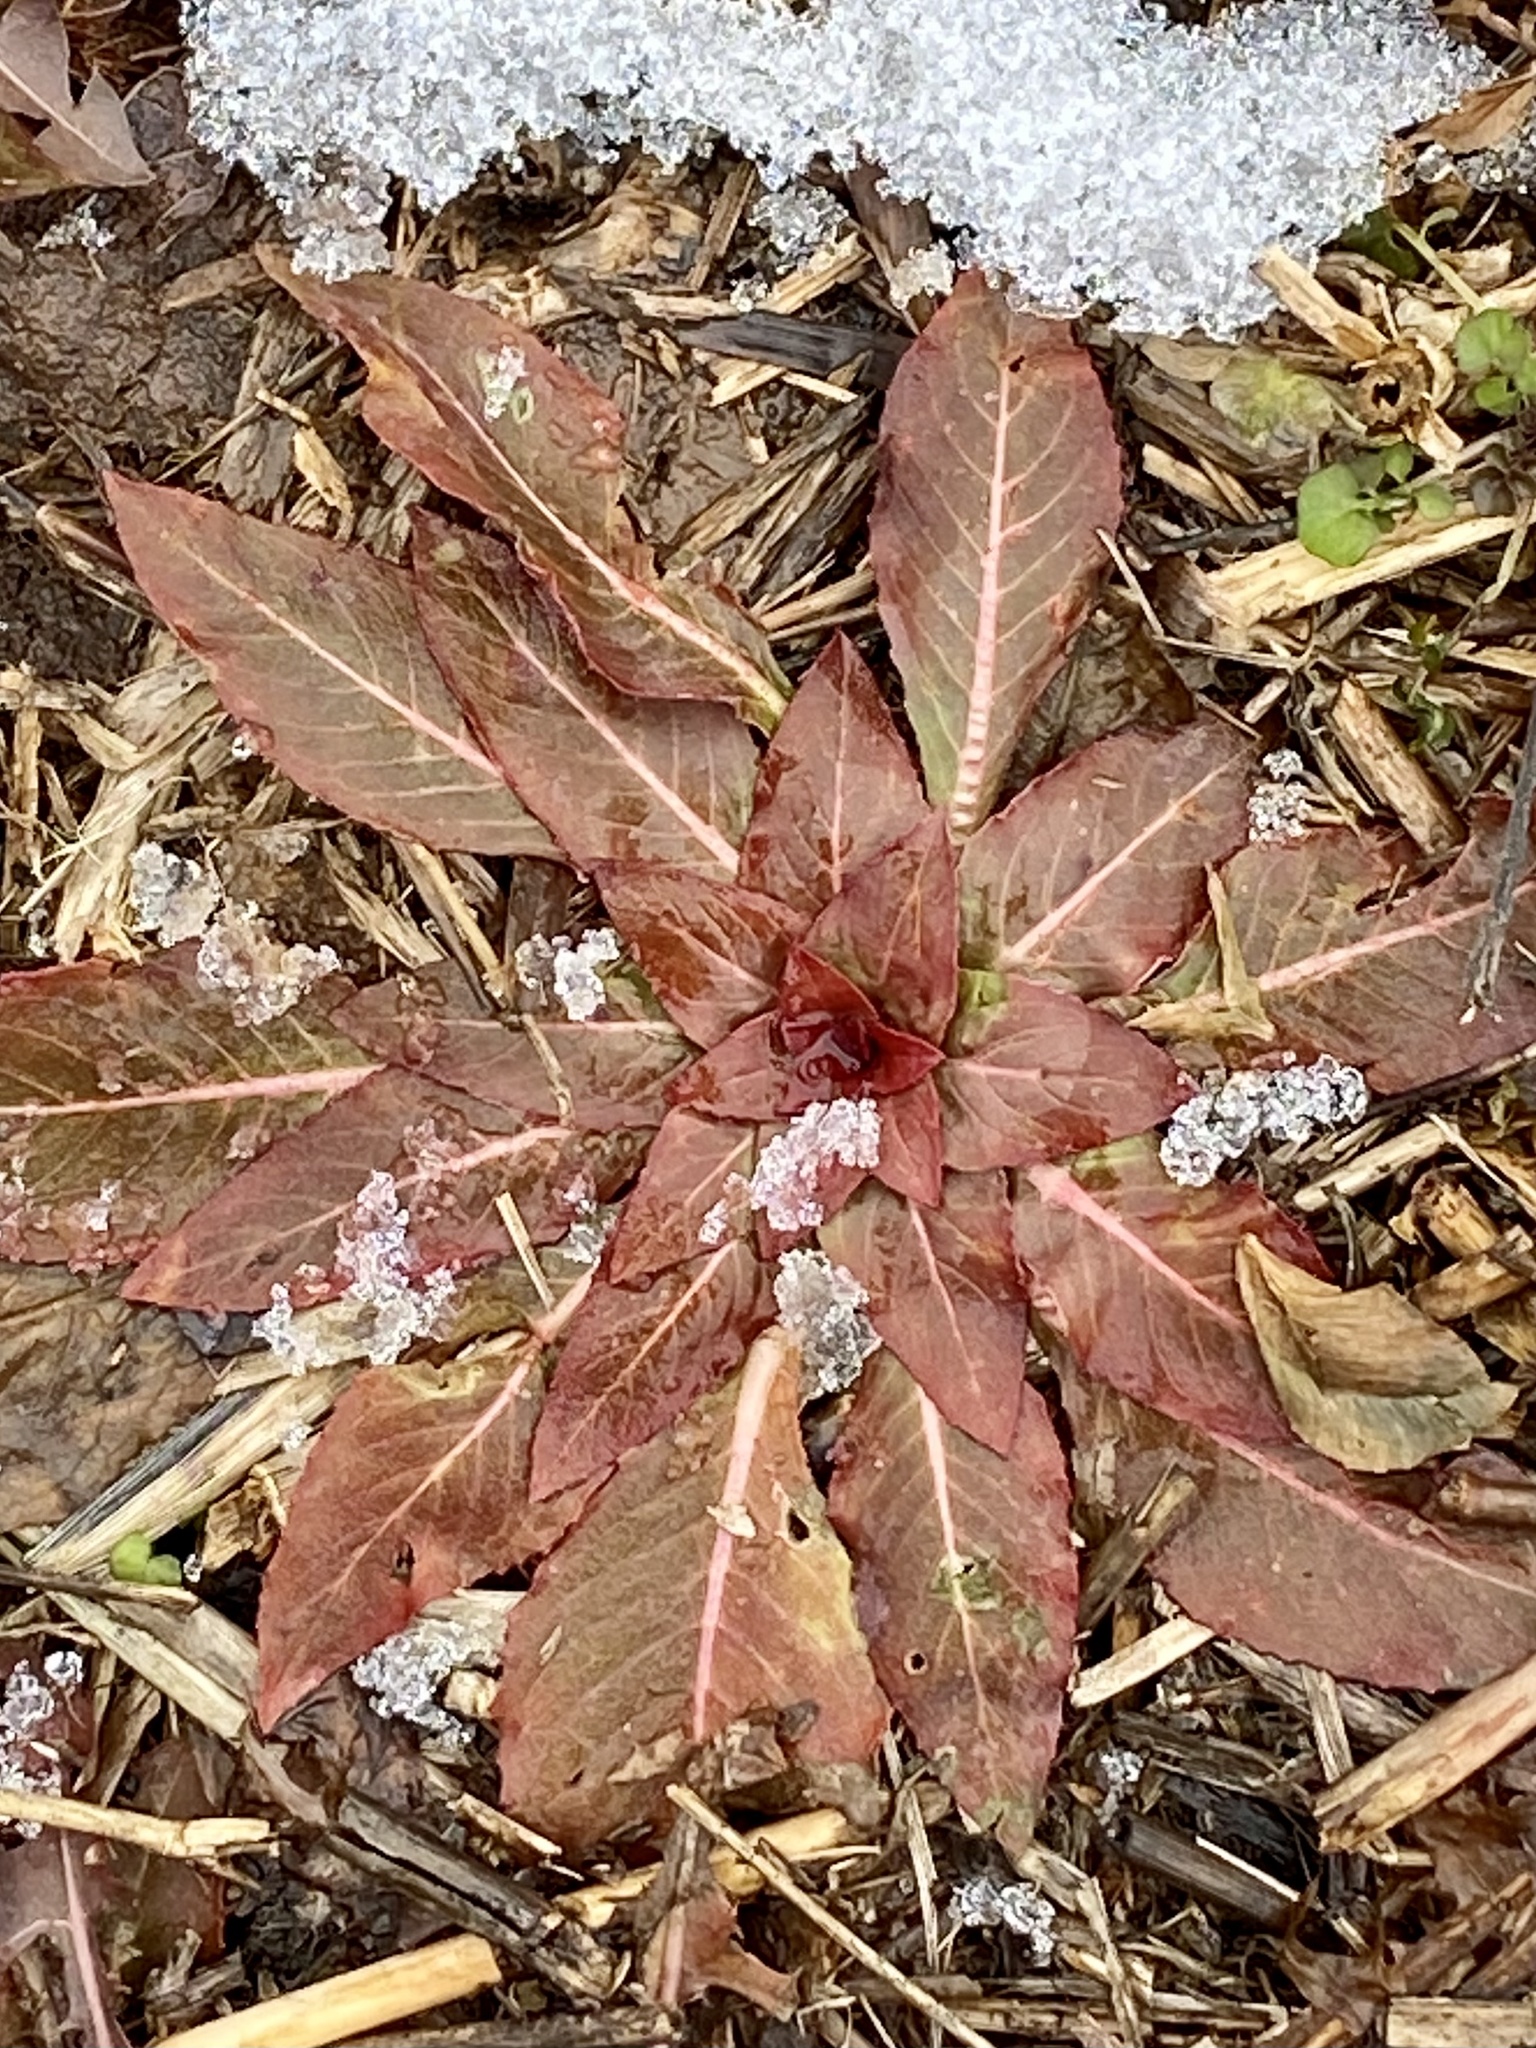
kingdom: Plantae
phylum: Tracheophyta
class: Magnoliopsida
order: Myrtales
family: Onagraceae
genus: Oenothera
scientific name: Oenothera biennis
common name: Common evening-primrose
